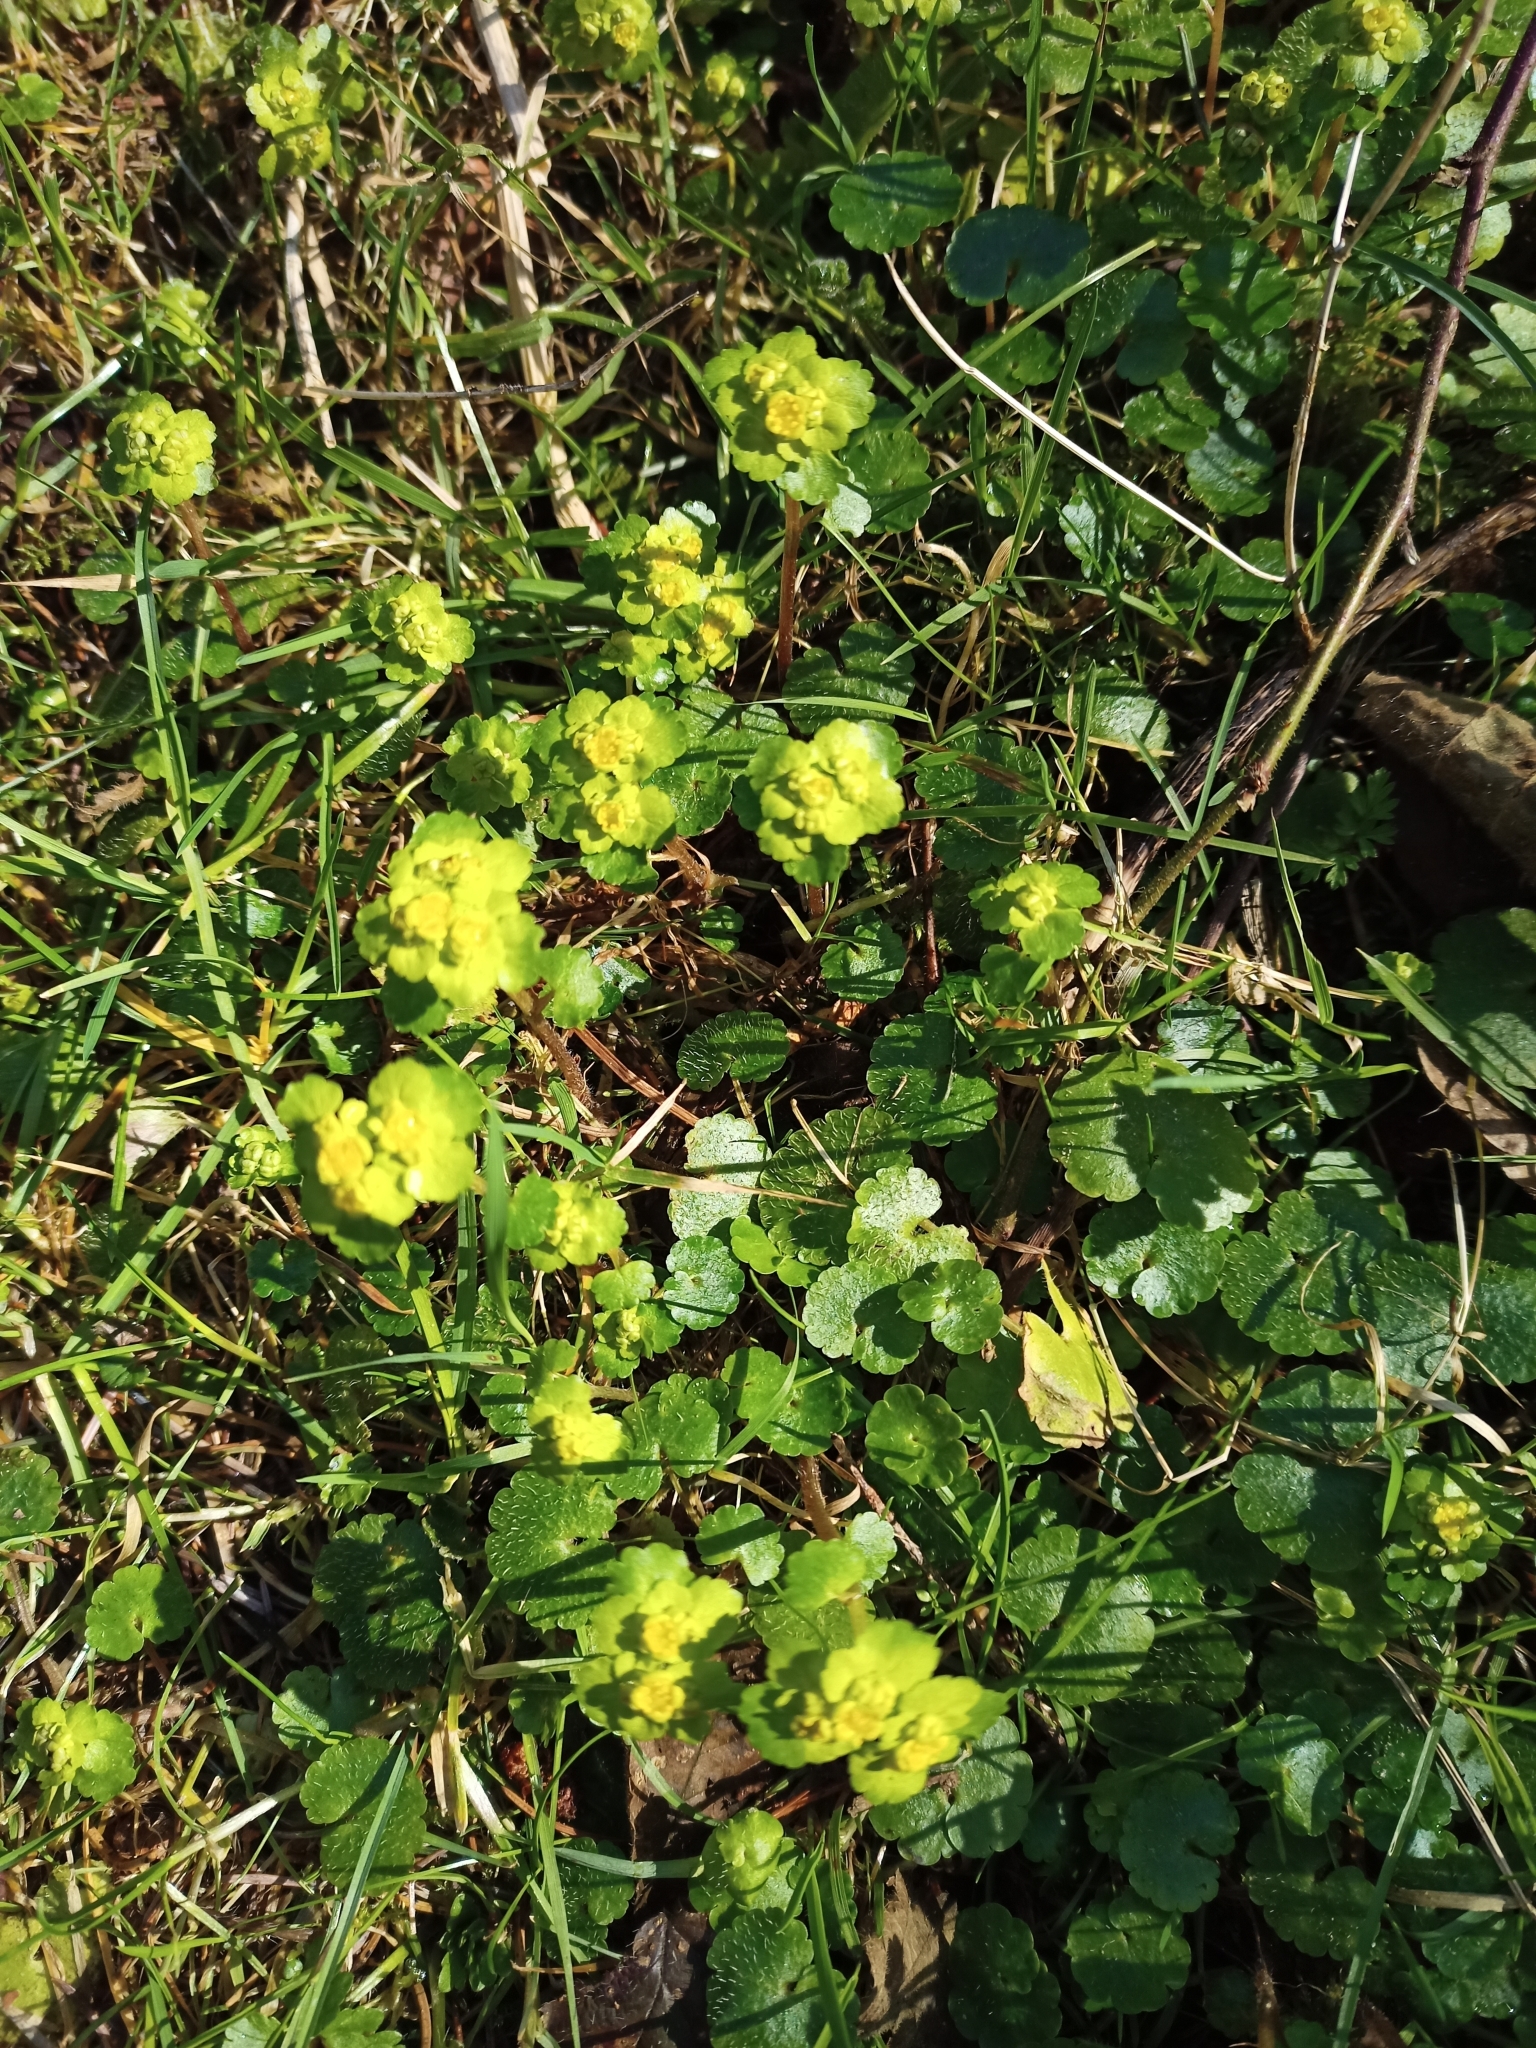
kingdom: Plantae
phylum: Tracheophyta
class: Magnoliopsida
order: Saxifragales
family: Saxifragaceae
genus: Chrysosplenium
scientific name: Chrysosplenium alternifolium
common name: Alternate-leaved golden-saxifrage
